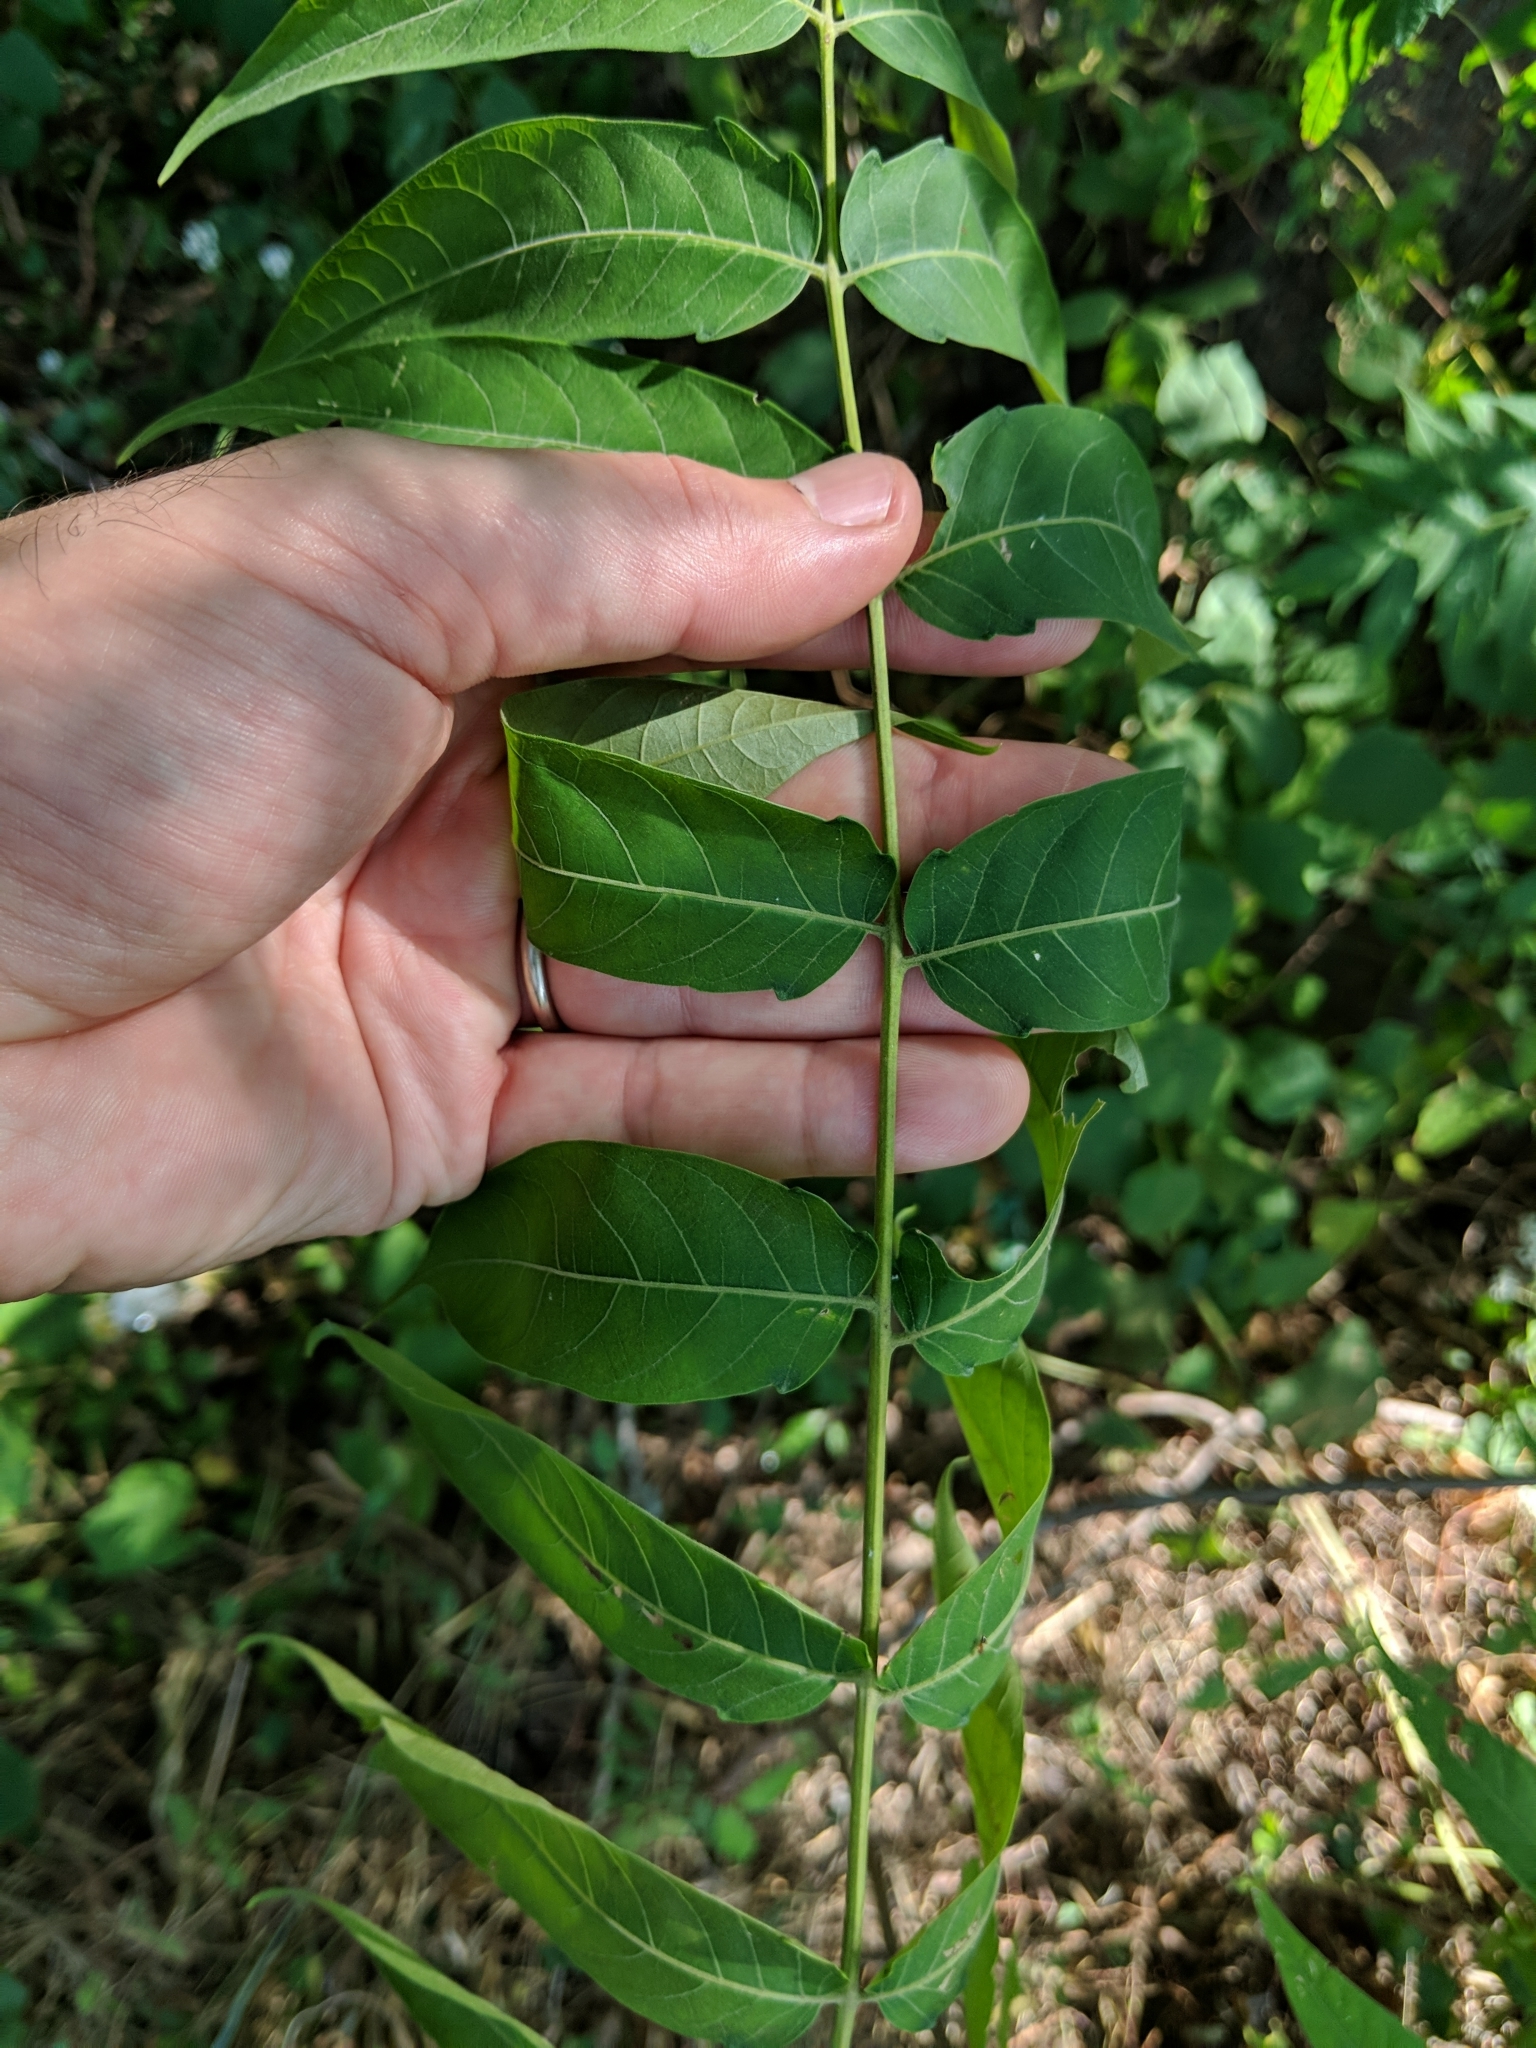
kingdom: Plantae
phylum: Tracheophyta
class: Magnoliopsida
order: Sapindales
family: Simaroubaceae
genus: Ailanthus
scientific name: Ailanthus altissima
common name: Tree-of-heaven
